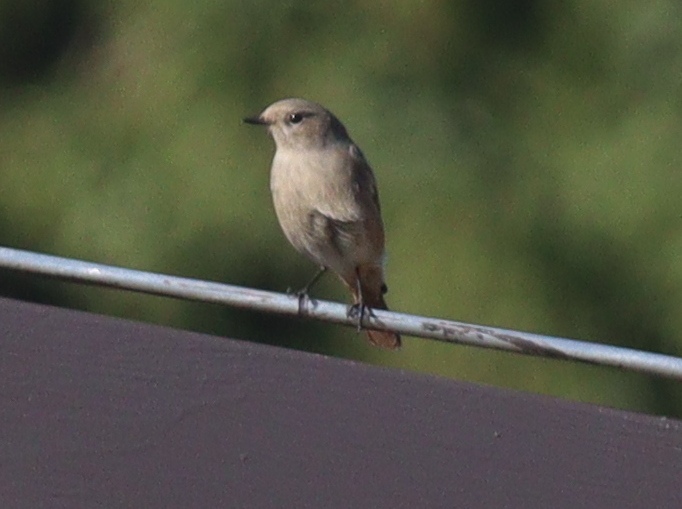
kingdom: Animalia
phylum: Chordata
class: Aves
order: Passeriformes
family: Muscicapidae
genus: Phoenicurus
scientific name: Phoenicurus ochruros
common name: Black redstart
